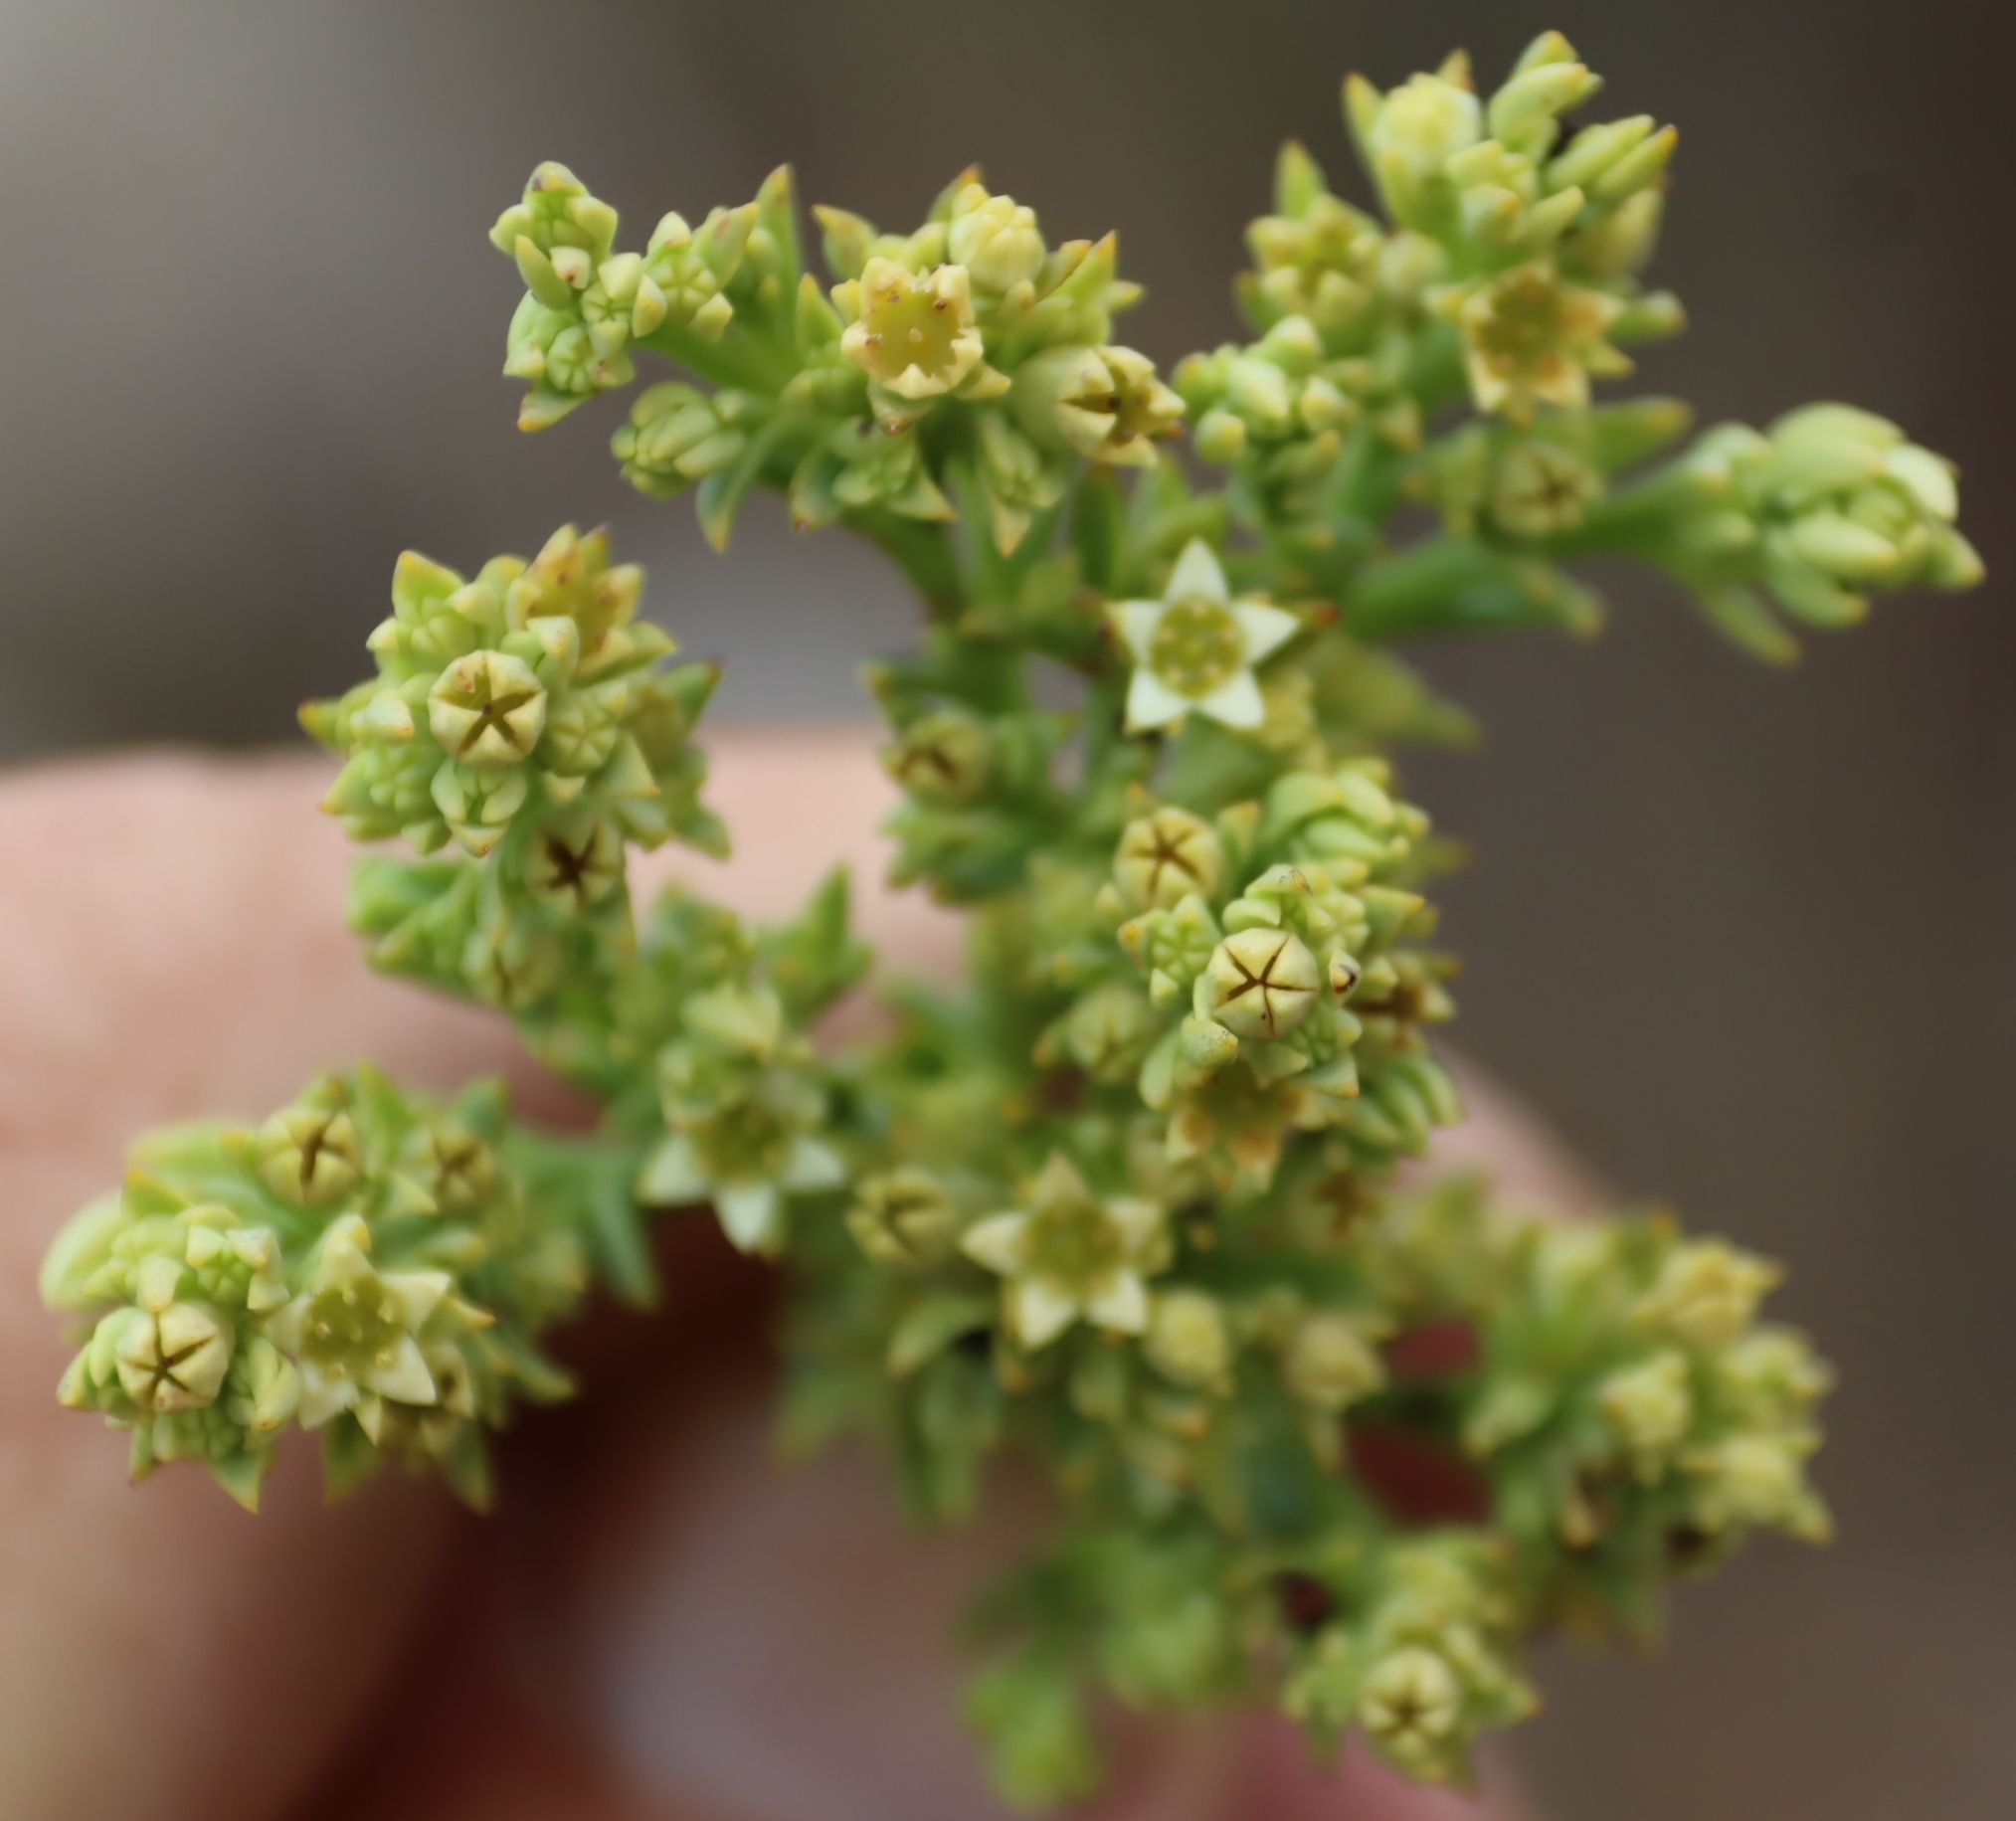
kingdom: Plantae
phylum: Tracheophyta
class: Magnoliopsida
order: Santalales
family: Thesiaceae
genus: Thesium
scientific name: Thesium foliosum
